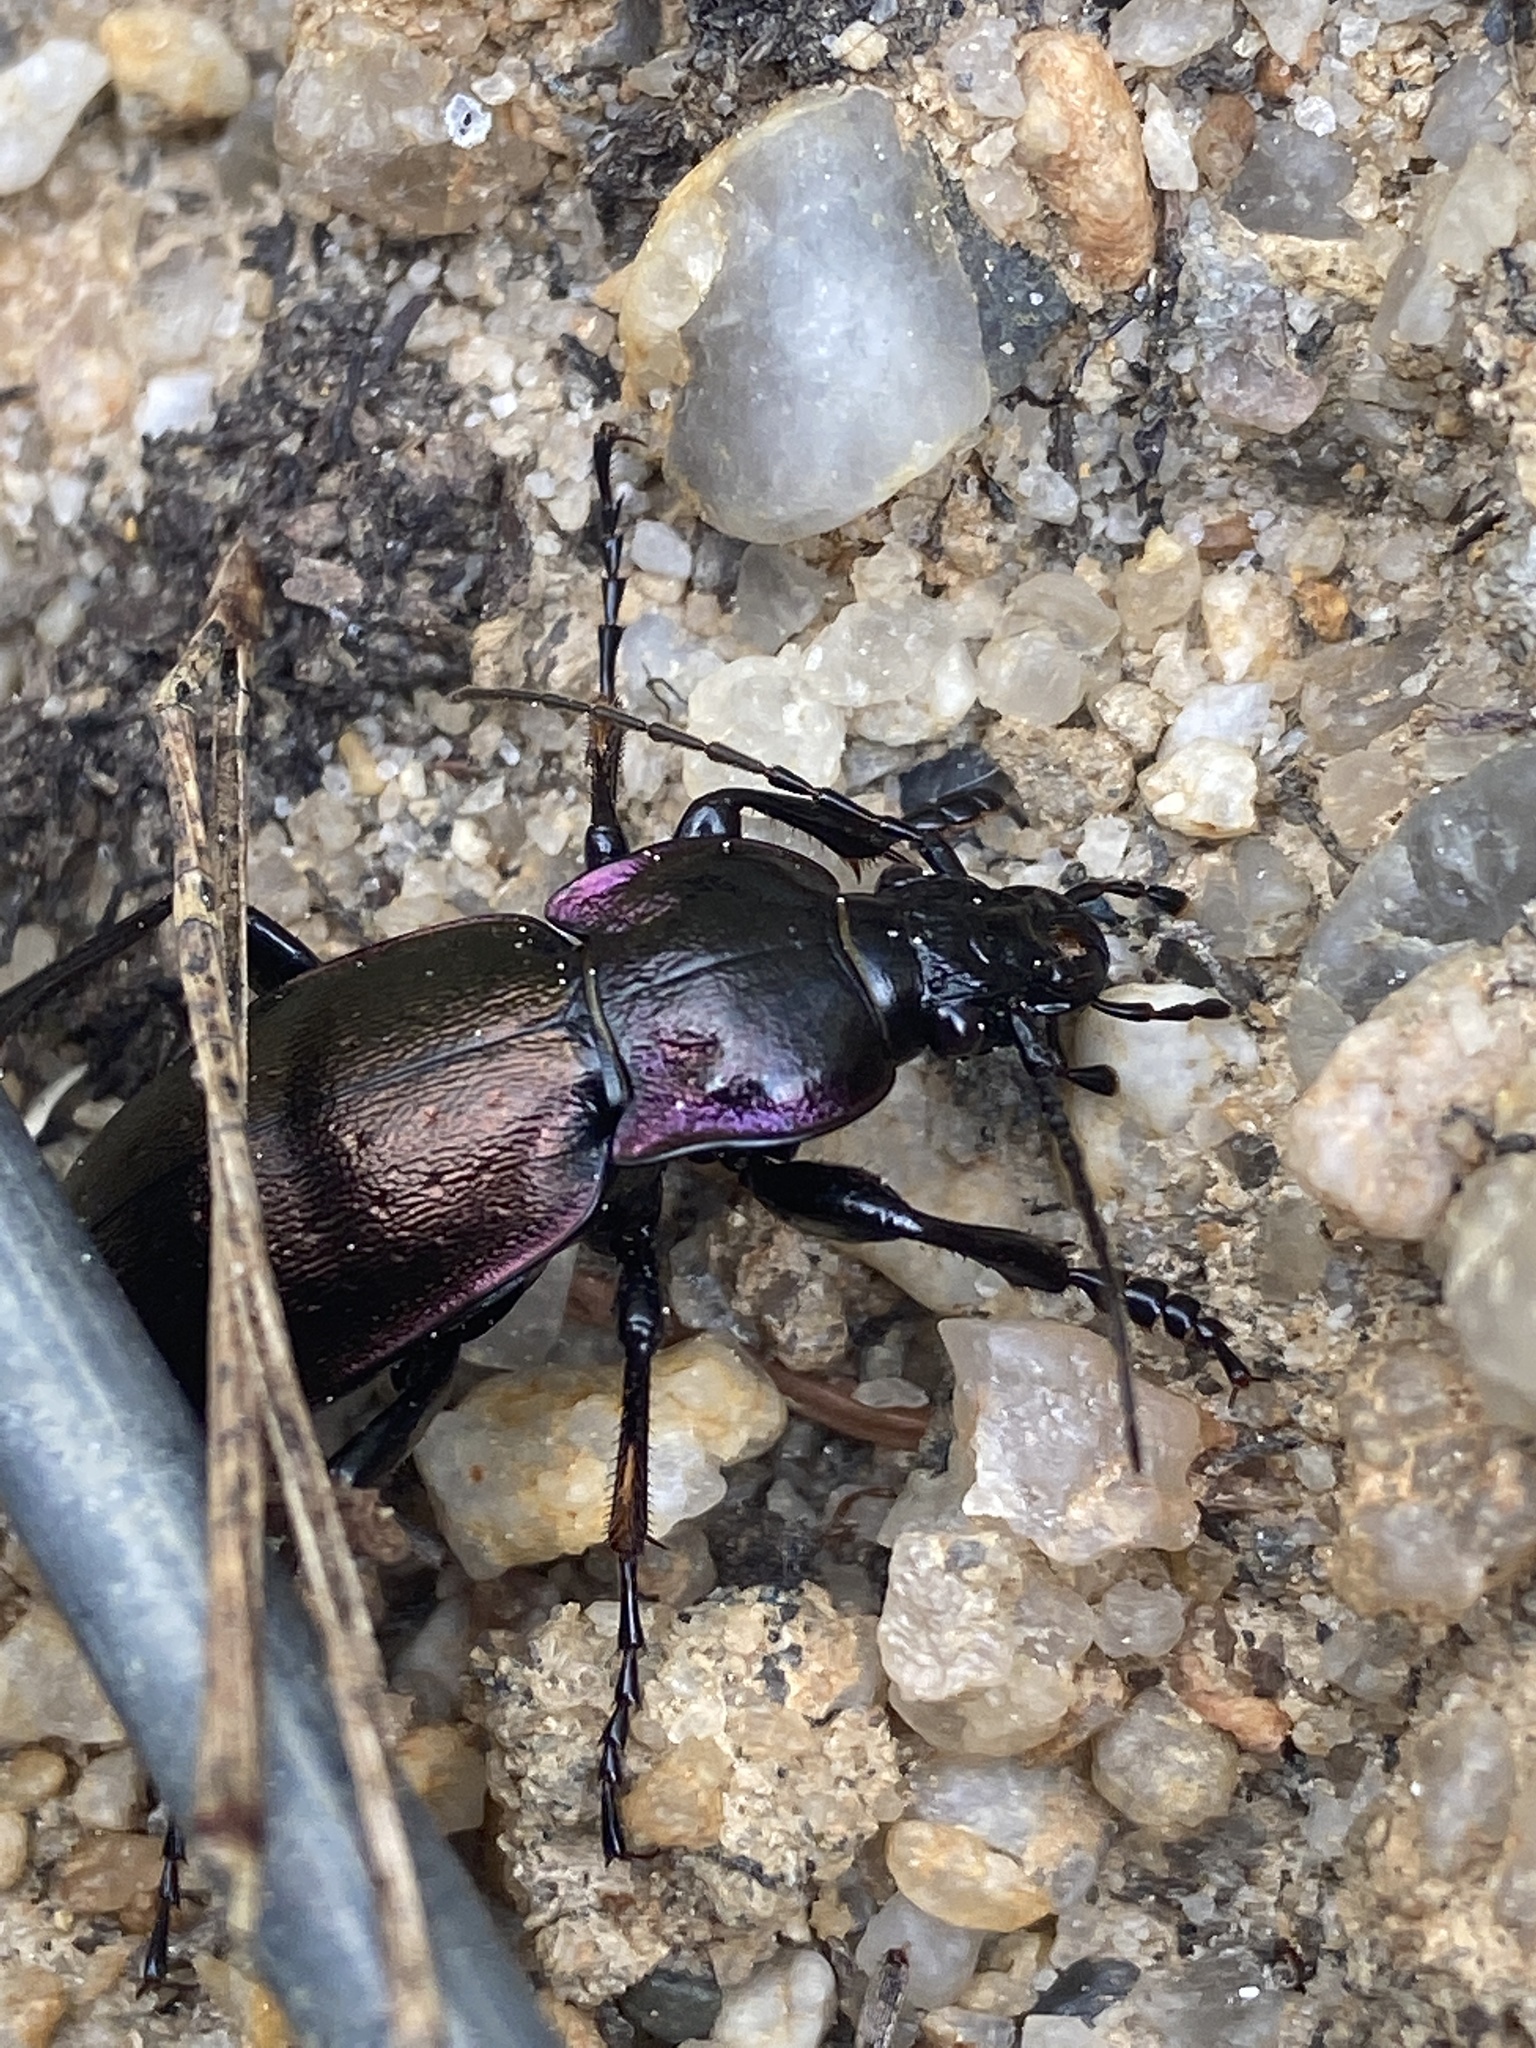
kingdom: Animalia
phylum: Arthropoda
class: Insecta
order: Coleoptera
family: Carabidae
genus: Carabus
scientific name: Carabus nemoralis
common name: European ground beetle
